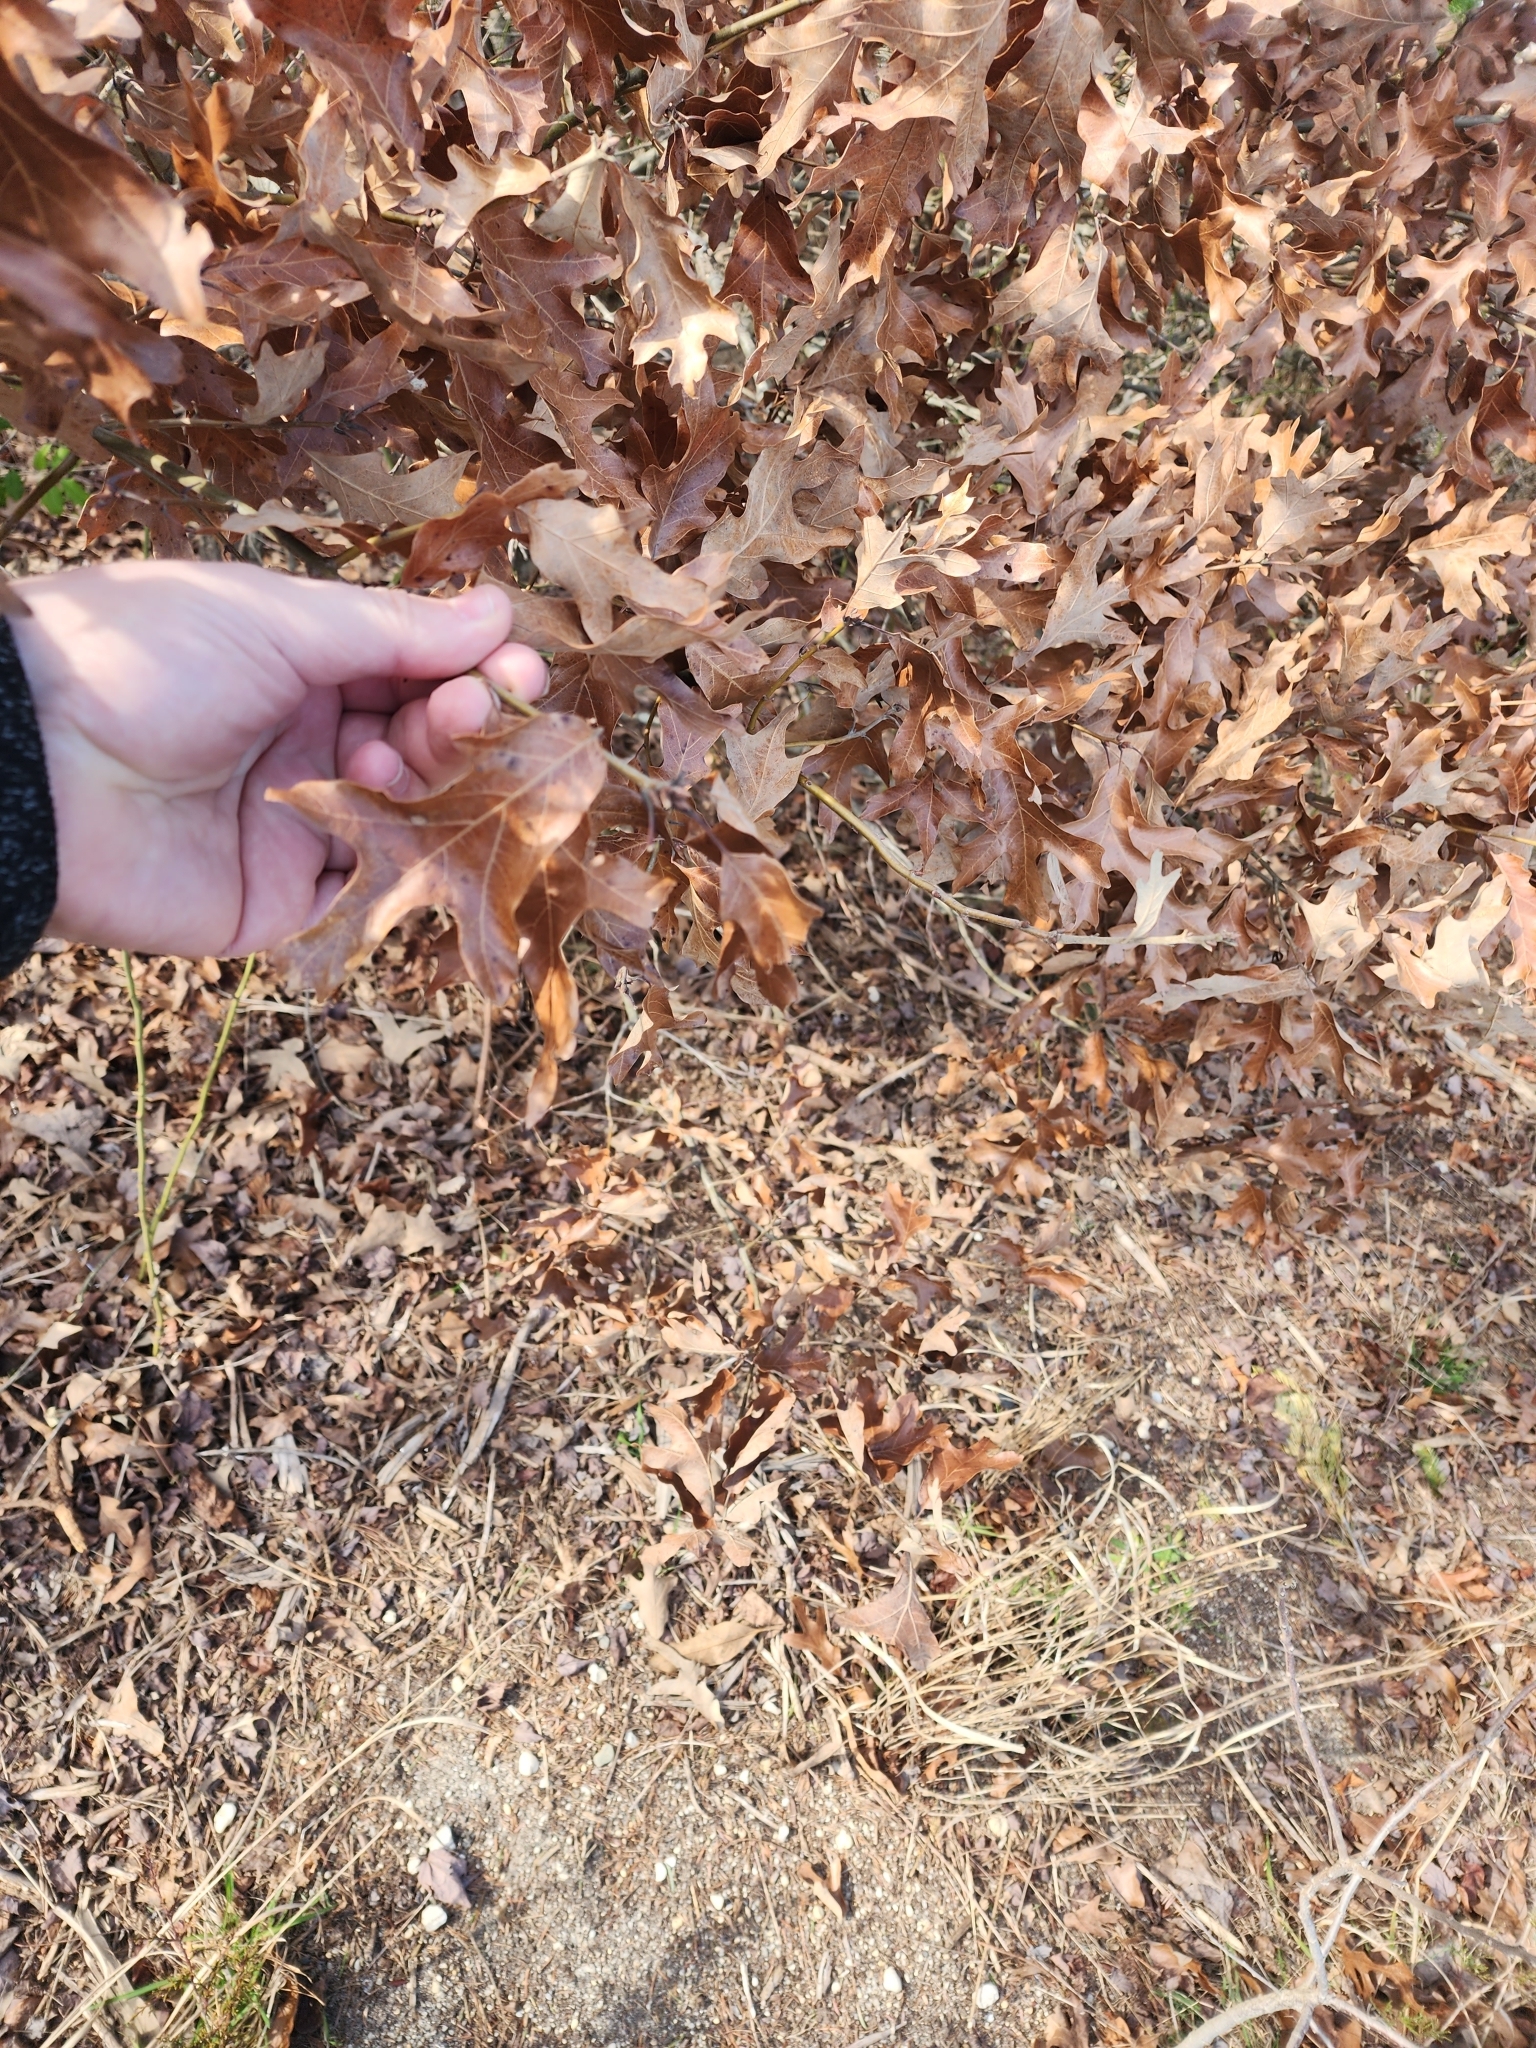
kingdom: Plantae
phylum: Tracheophyta
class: Magnoliopsida
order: Fagales
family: Fagaceae
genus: Quercus
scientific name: Quercus ilicifolia
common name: Bear oak
